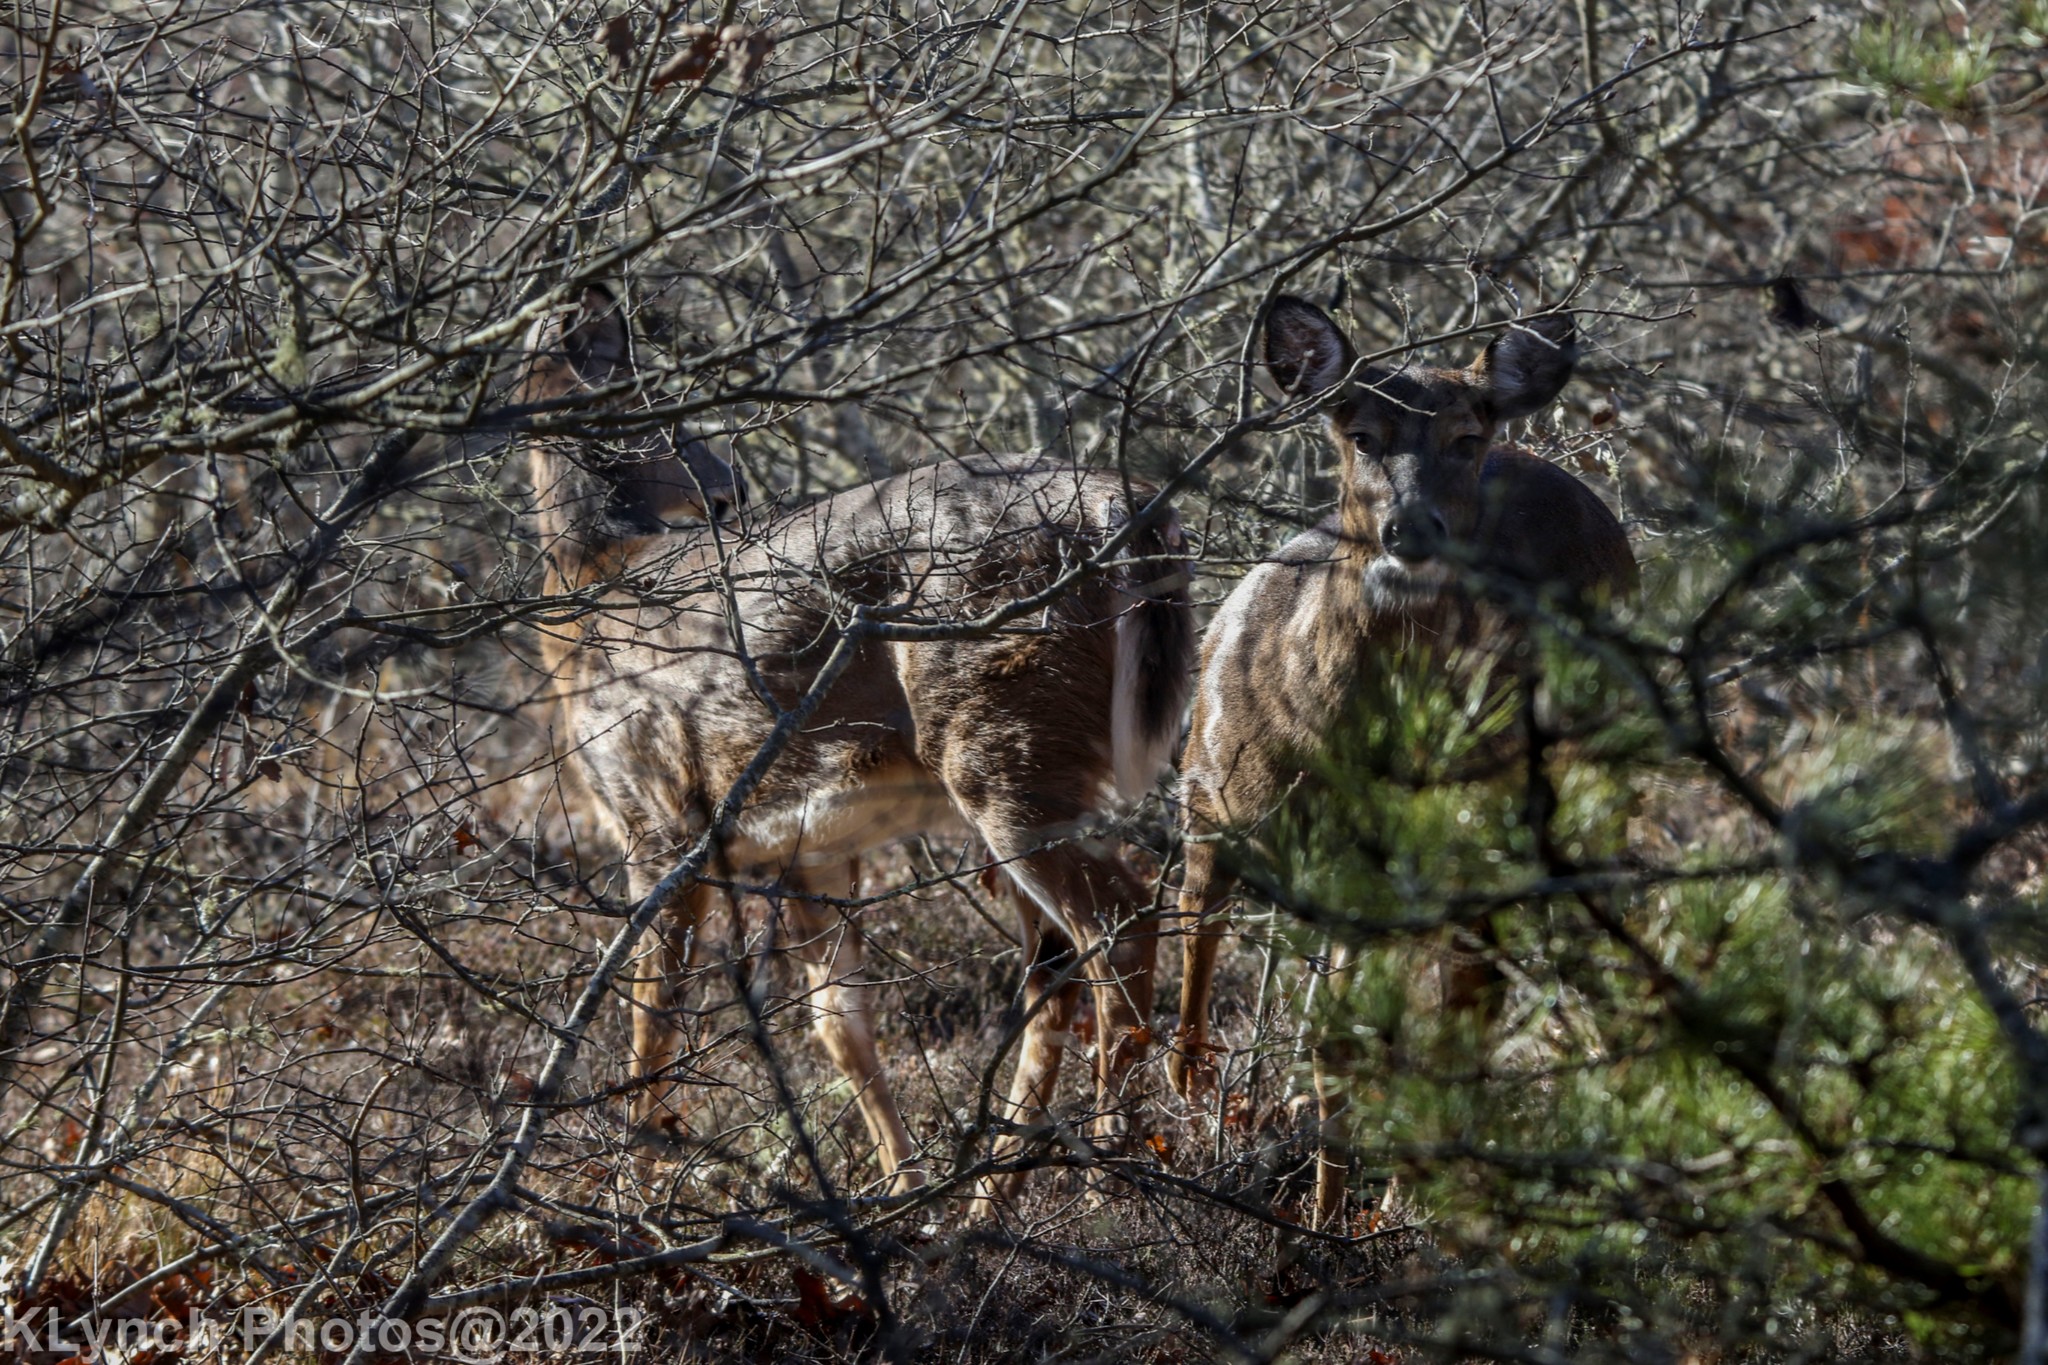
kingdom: Animalia
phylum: Chordata
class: Mammalia
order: Artiodactyla
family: Cervidae
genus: Odocoileus
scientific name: Odocoileus virginianus
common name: White-tailed deer
